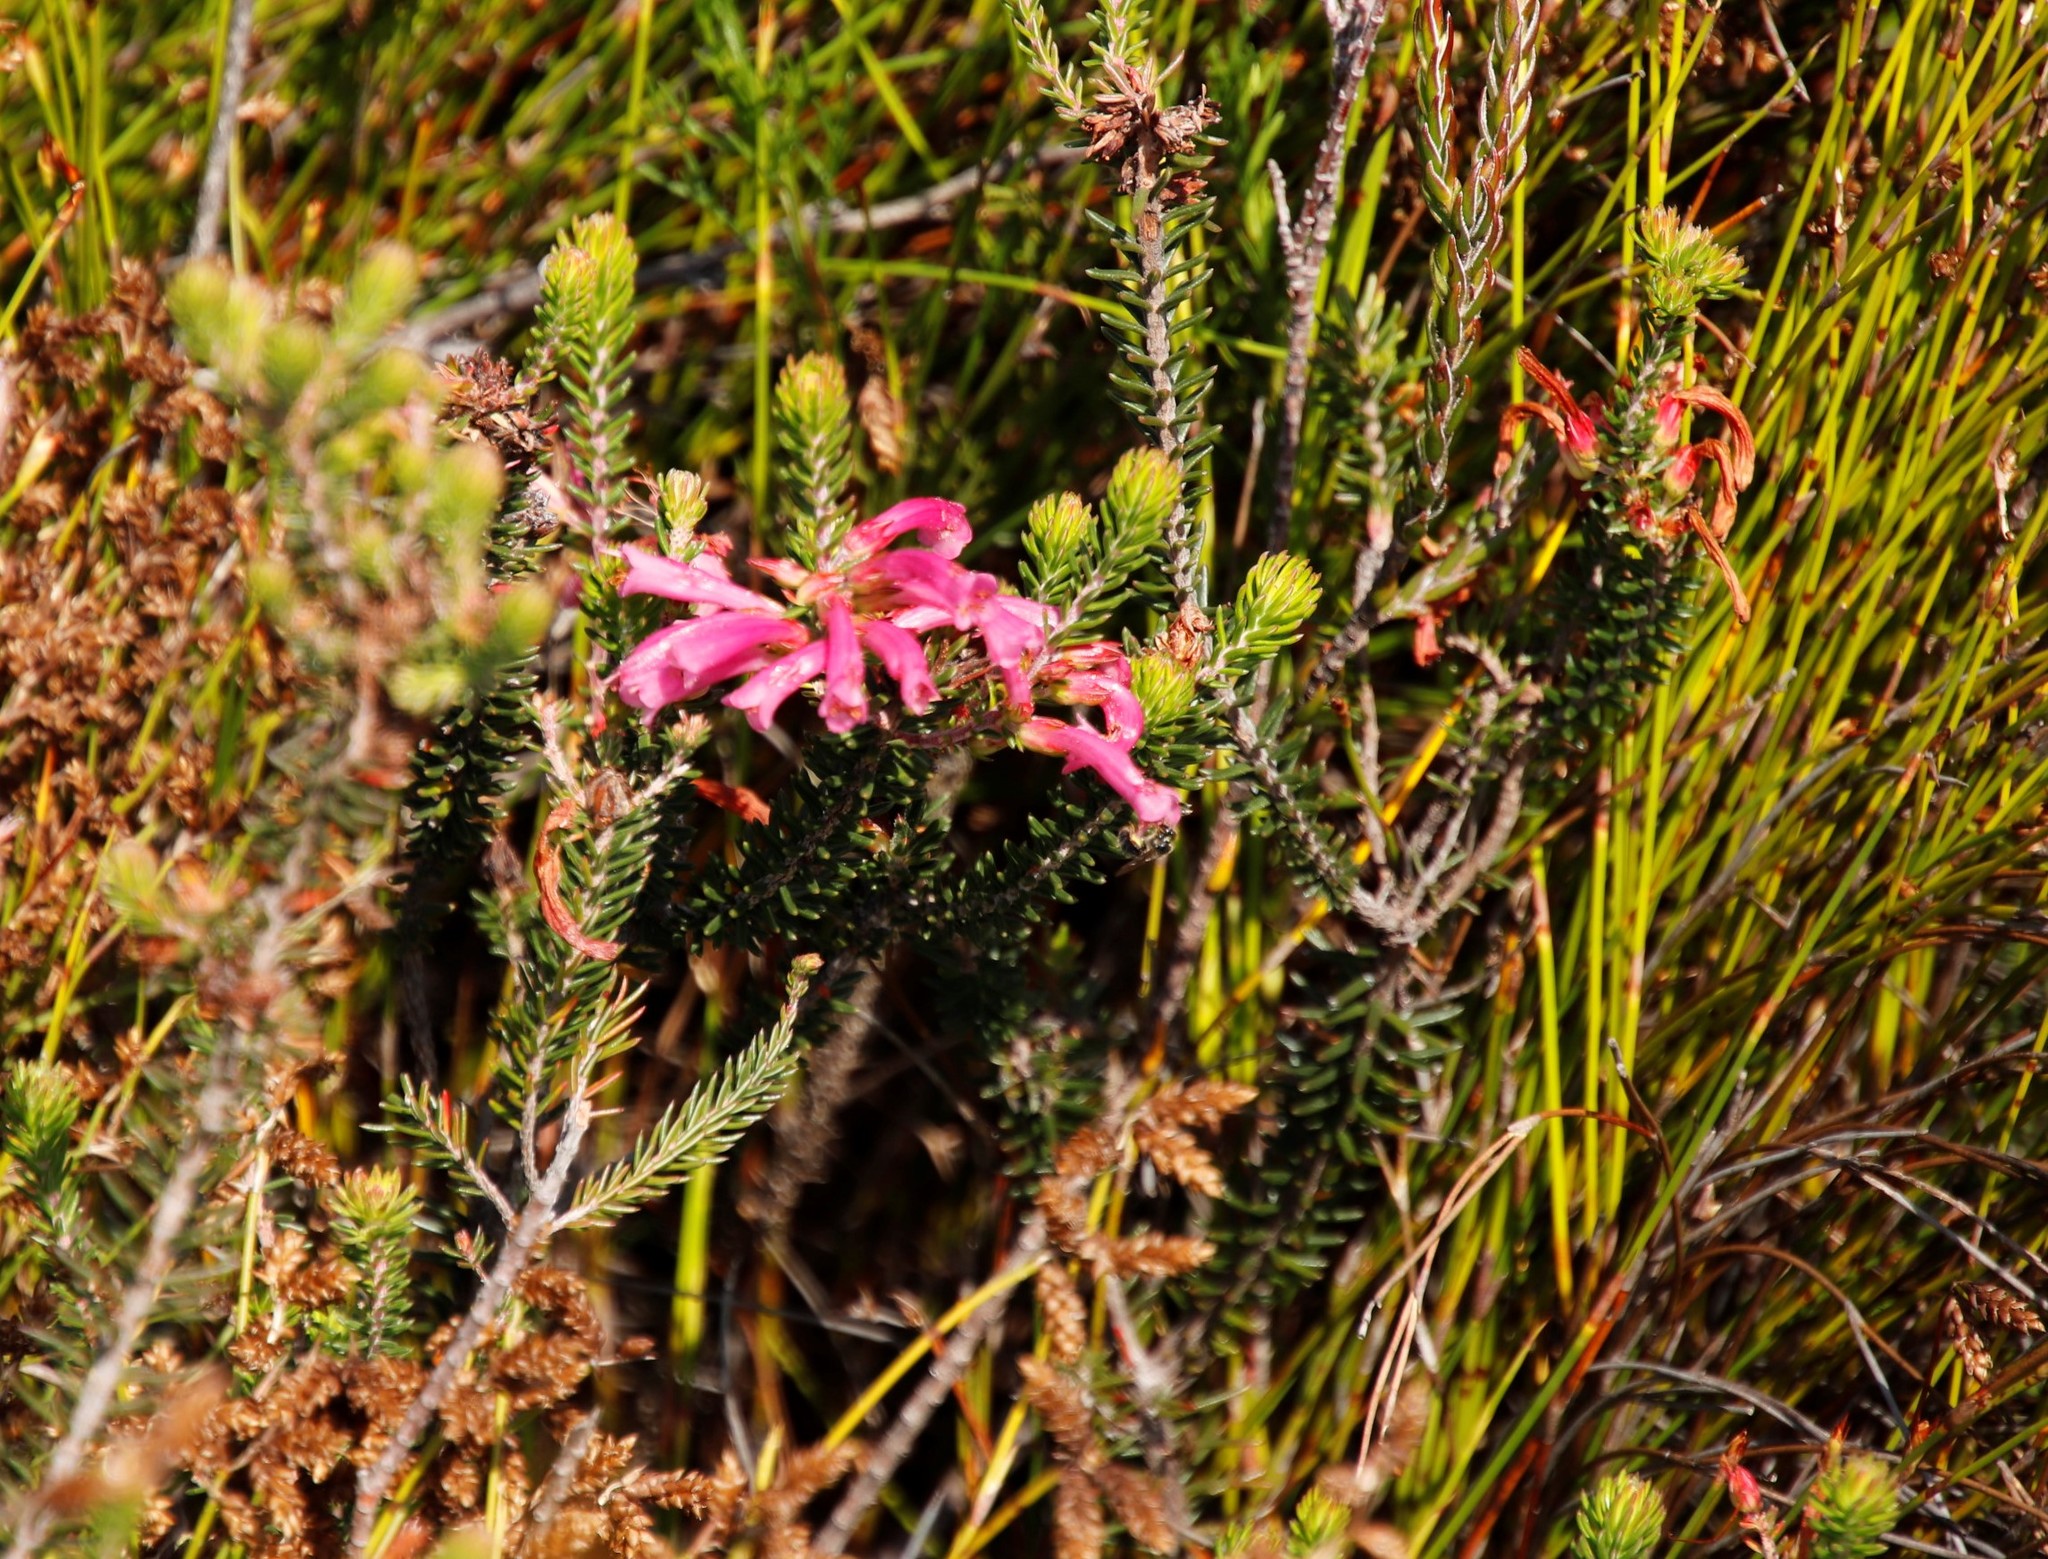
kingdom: Plantae
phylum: Tracheophyta
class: Magnoliopsida
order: Ericales
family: Ericaceae
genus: Erica
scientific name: Erica abietina
